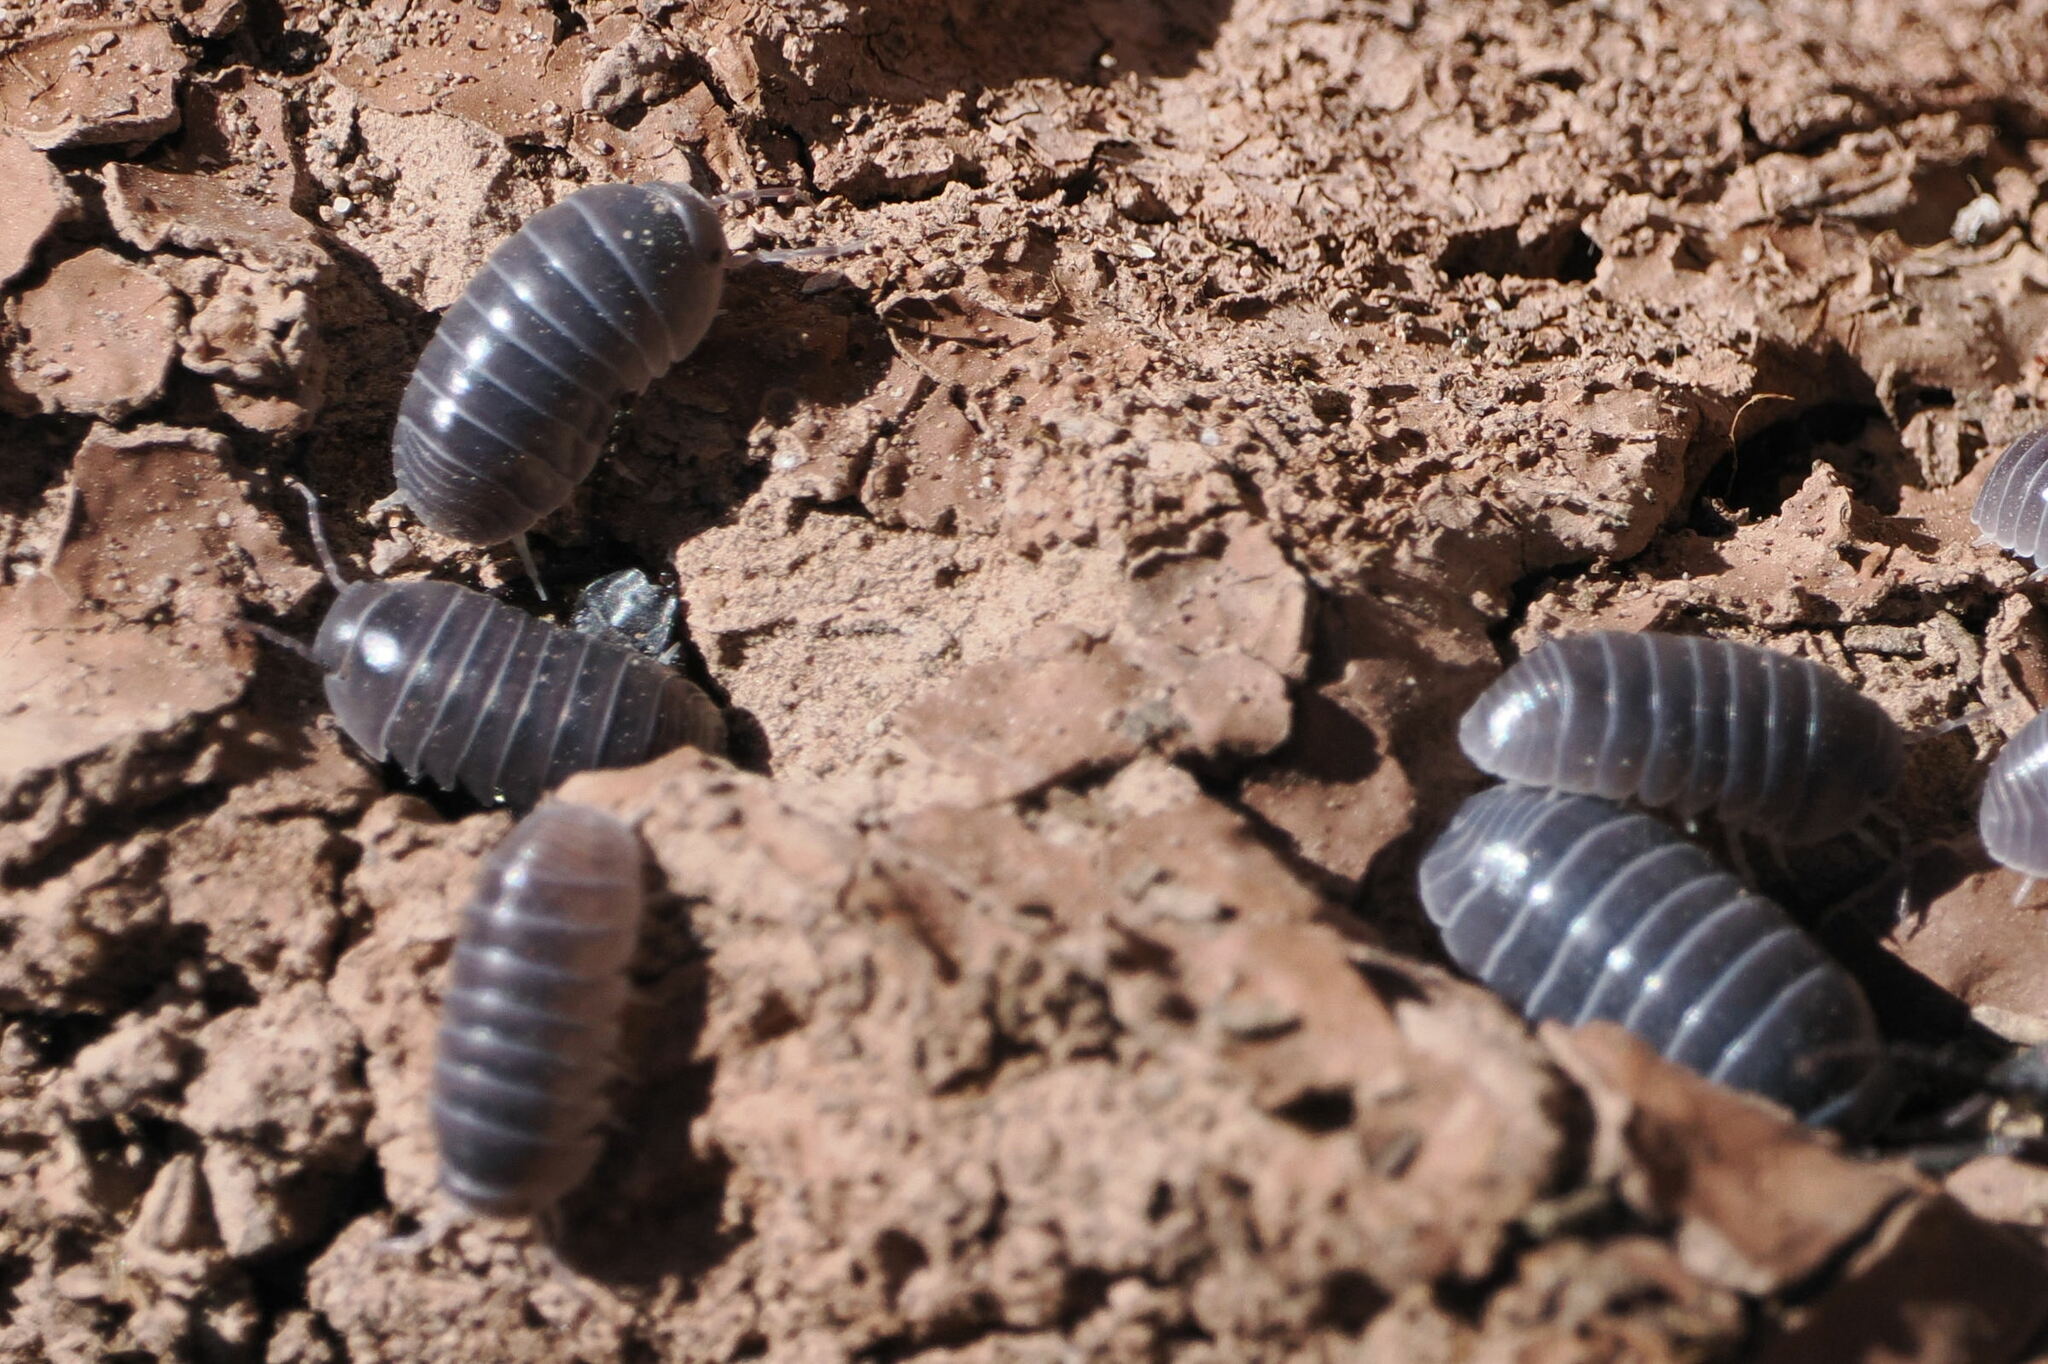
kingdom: Animalia
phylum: Arthropoda
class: Malacostraca
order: Isopoda
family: Armadillidiidae
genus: Armadillidium
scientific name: Armadillidium vulgare
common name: Common pill woodlouse
